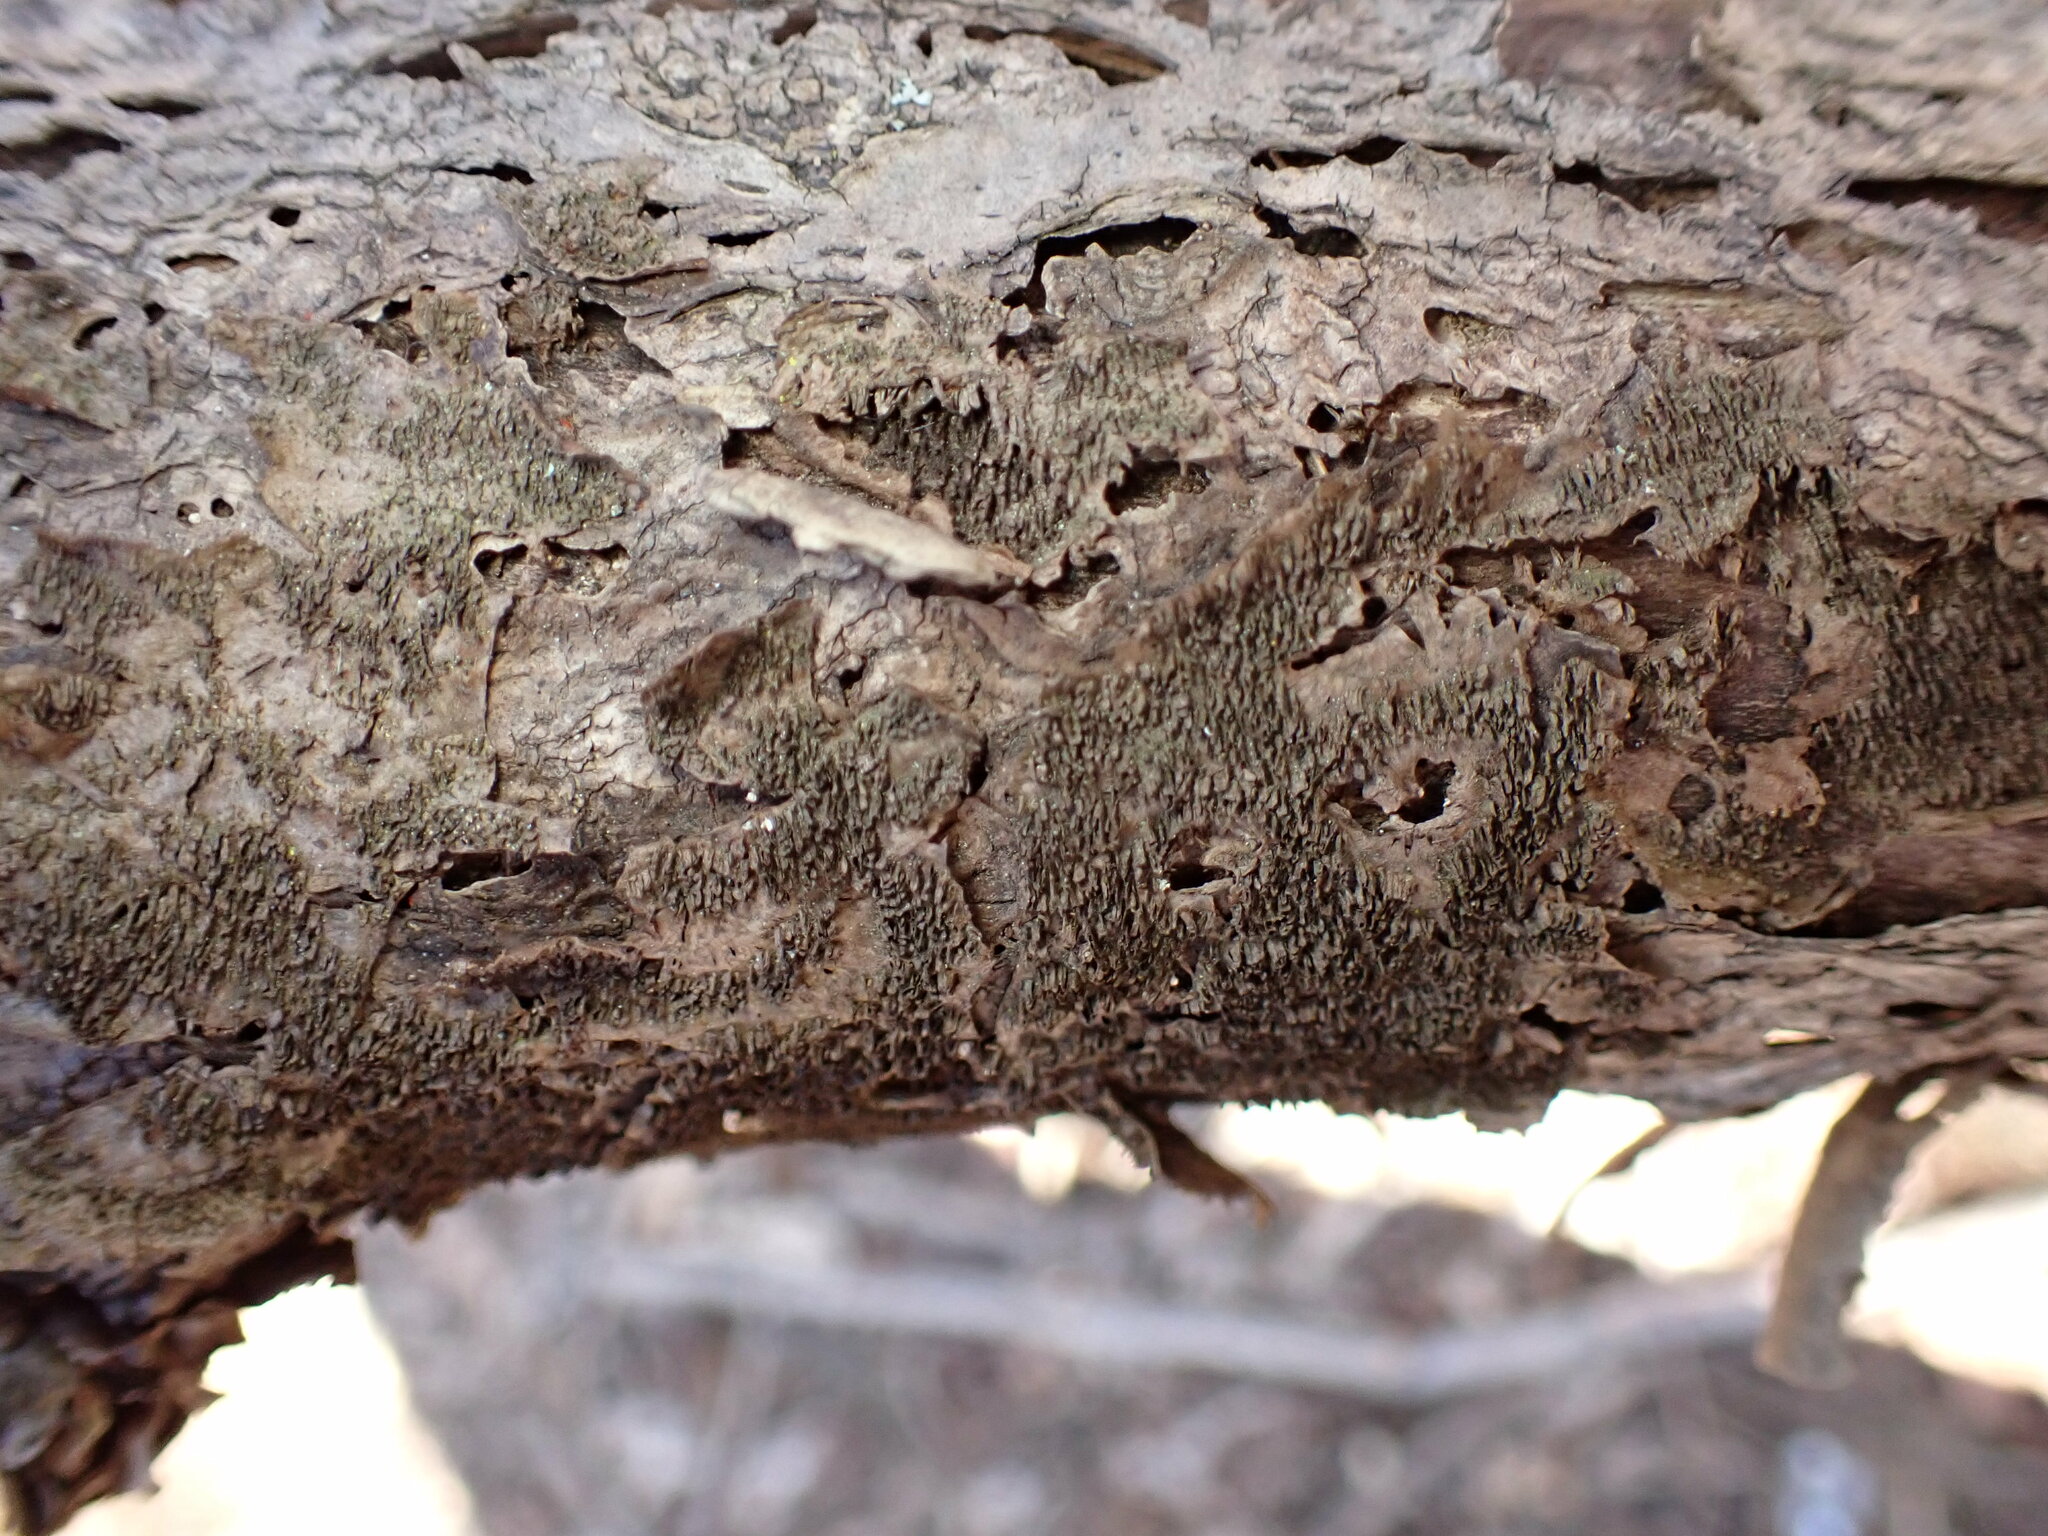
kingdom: Fungi
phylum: Basidiomycota
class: Agaricomycetes
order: Polyporales
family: Polyporaceae
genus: Dentocorticium
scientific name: Dentocorticium portoricense
